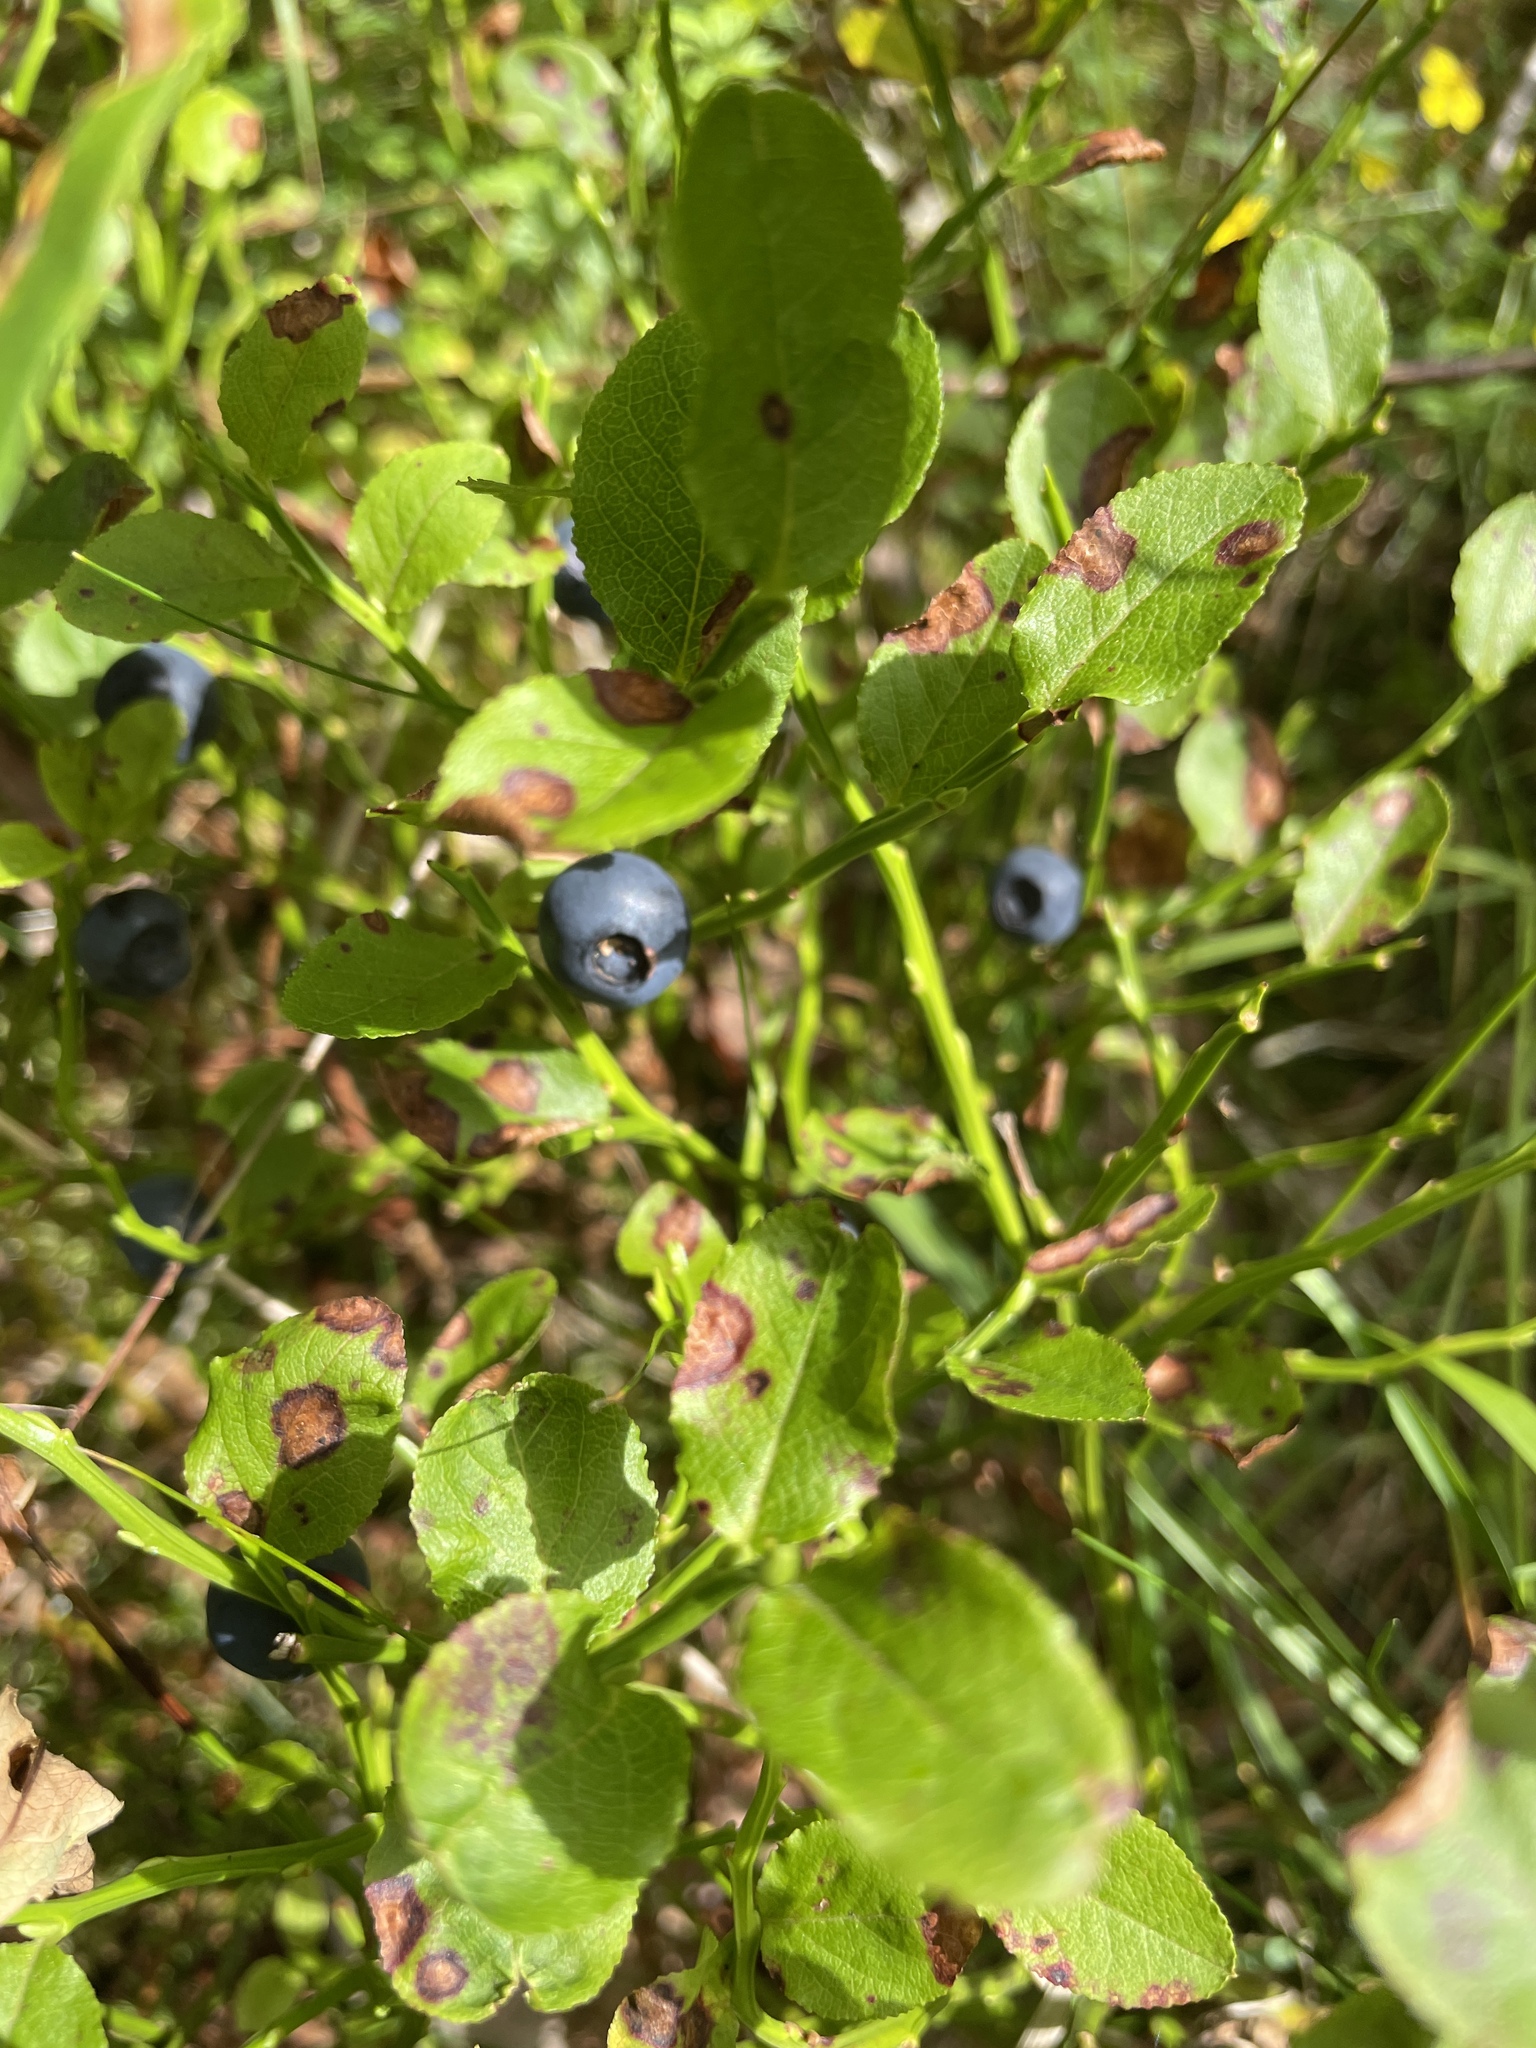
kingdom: Plantae
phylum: Tracheophyta
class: Magnoliopsida
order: Ericales
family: Ericaceae
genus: Vaccinium
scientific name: Vaccinium myrtillus
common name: Bilberry
